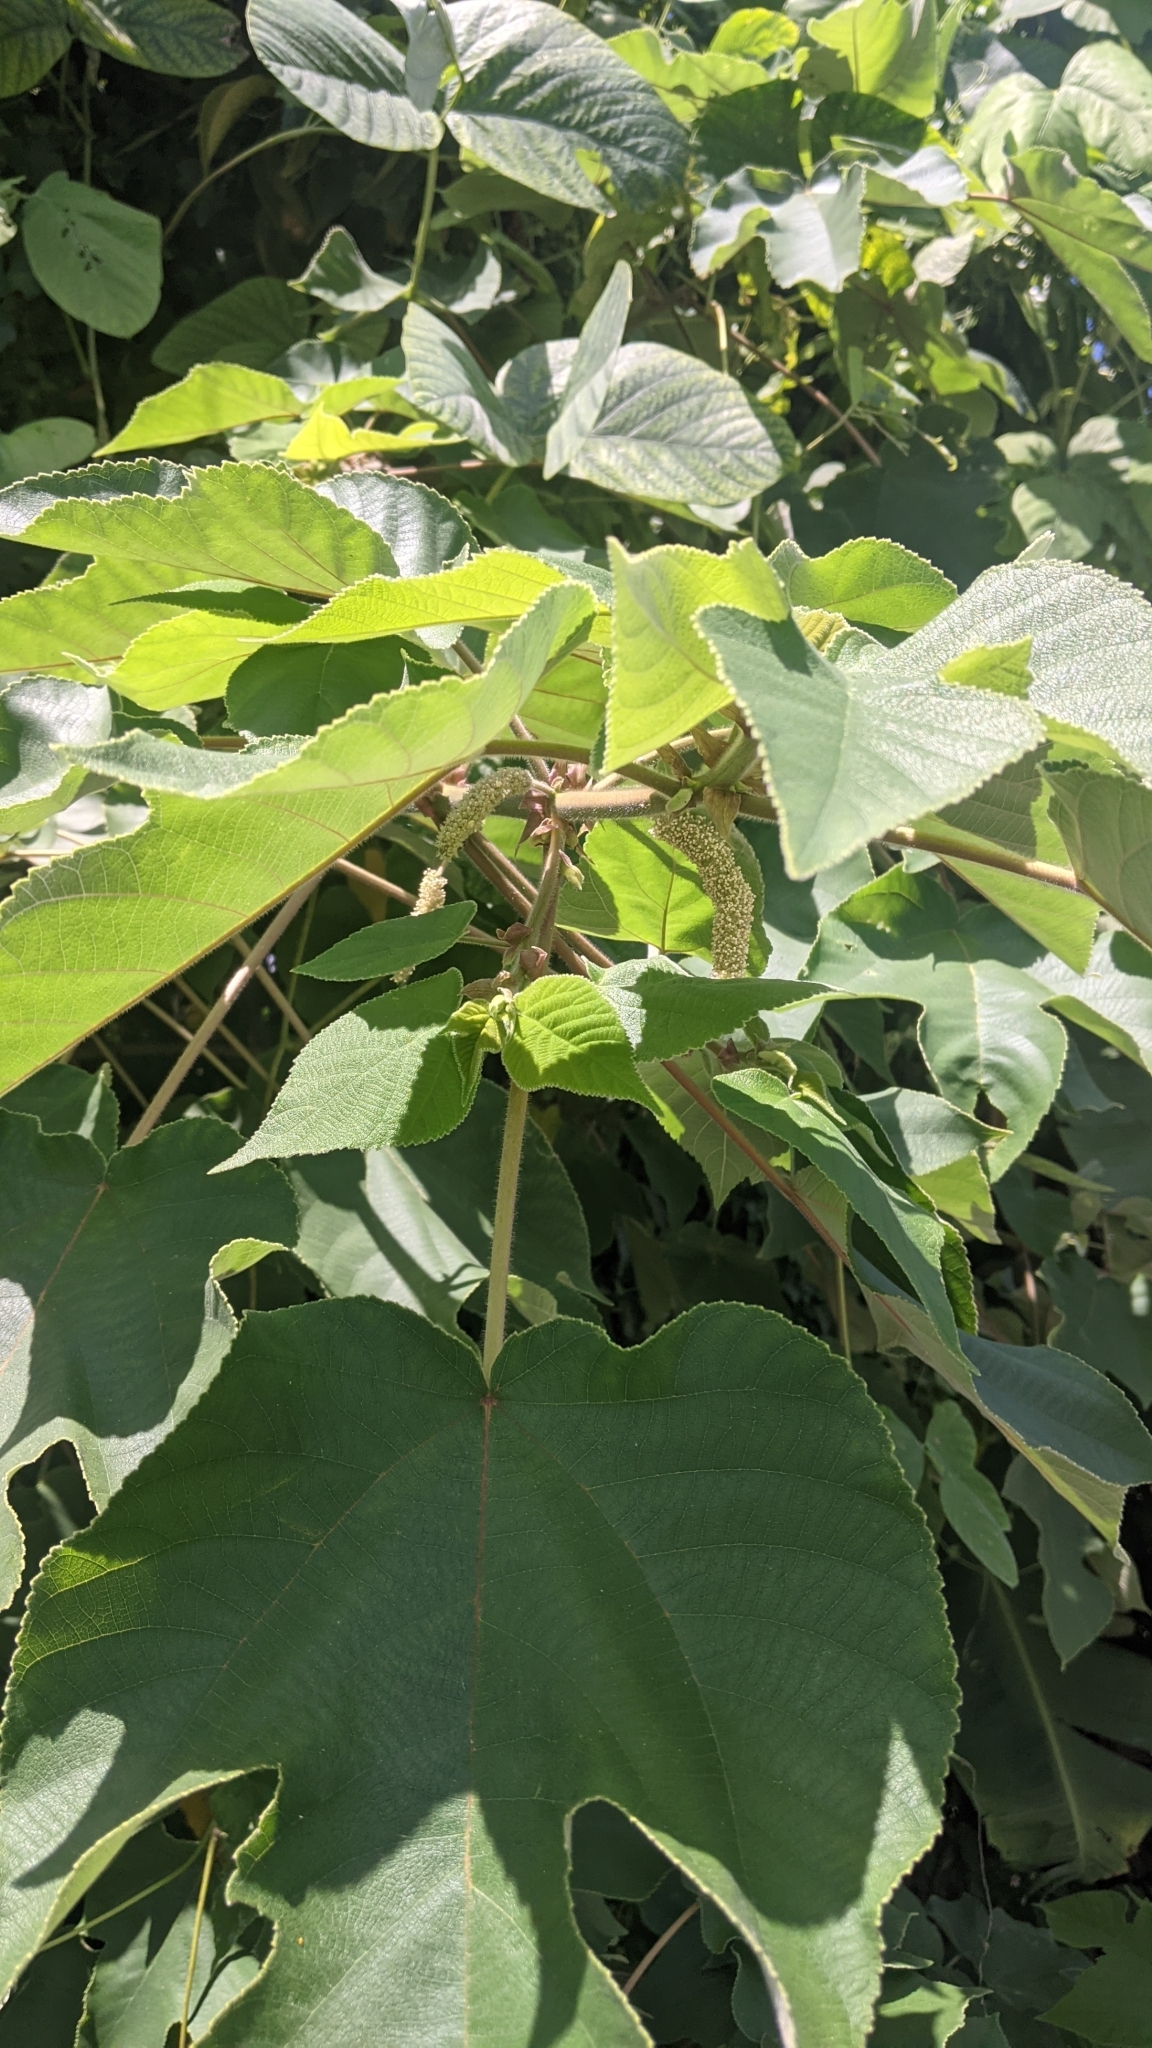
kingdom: Plantae
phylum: Tracheophyta
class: Magnoliopsida
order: Rosales
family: Moraceae
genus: Broussonetia
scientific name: Broussonetia papyrifera
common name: Paper mulberry
